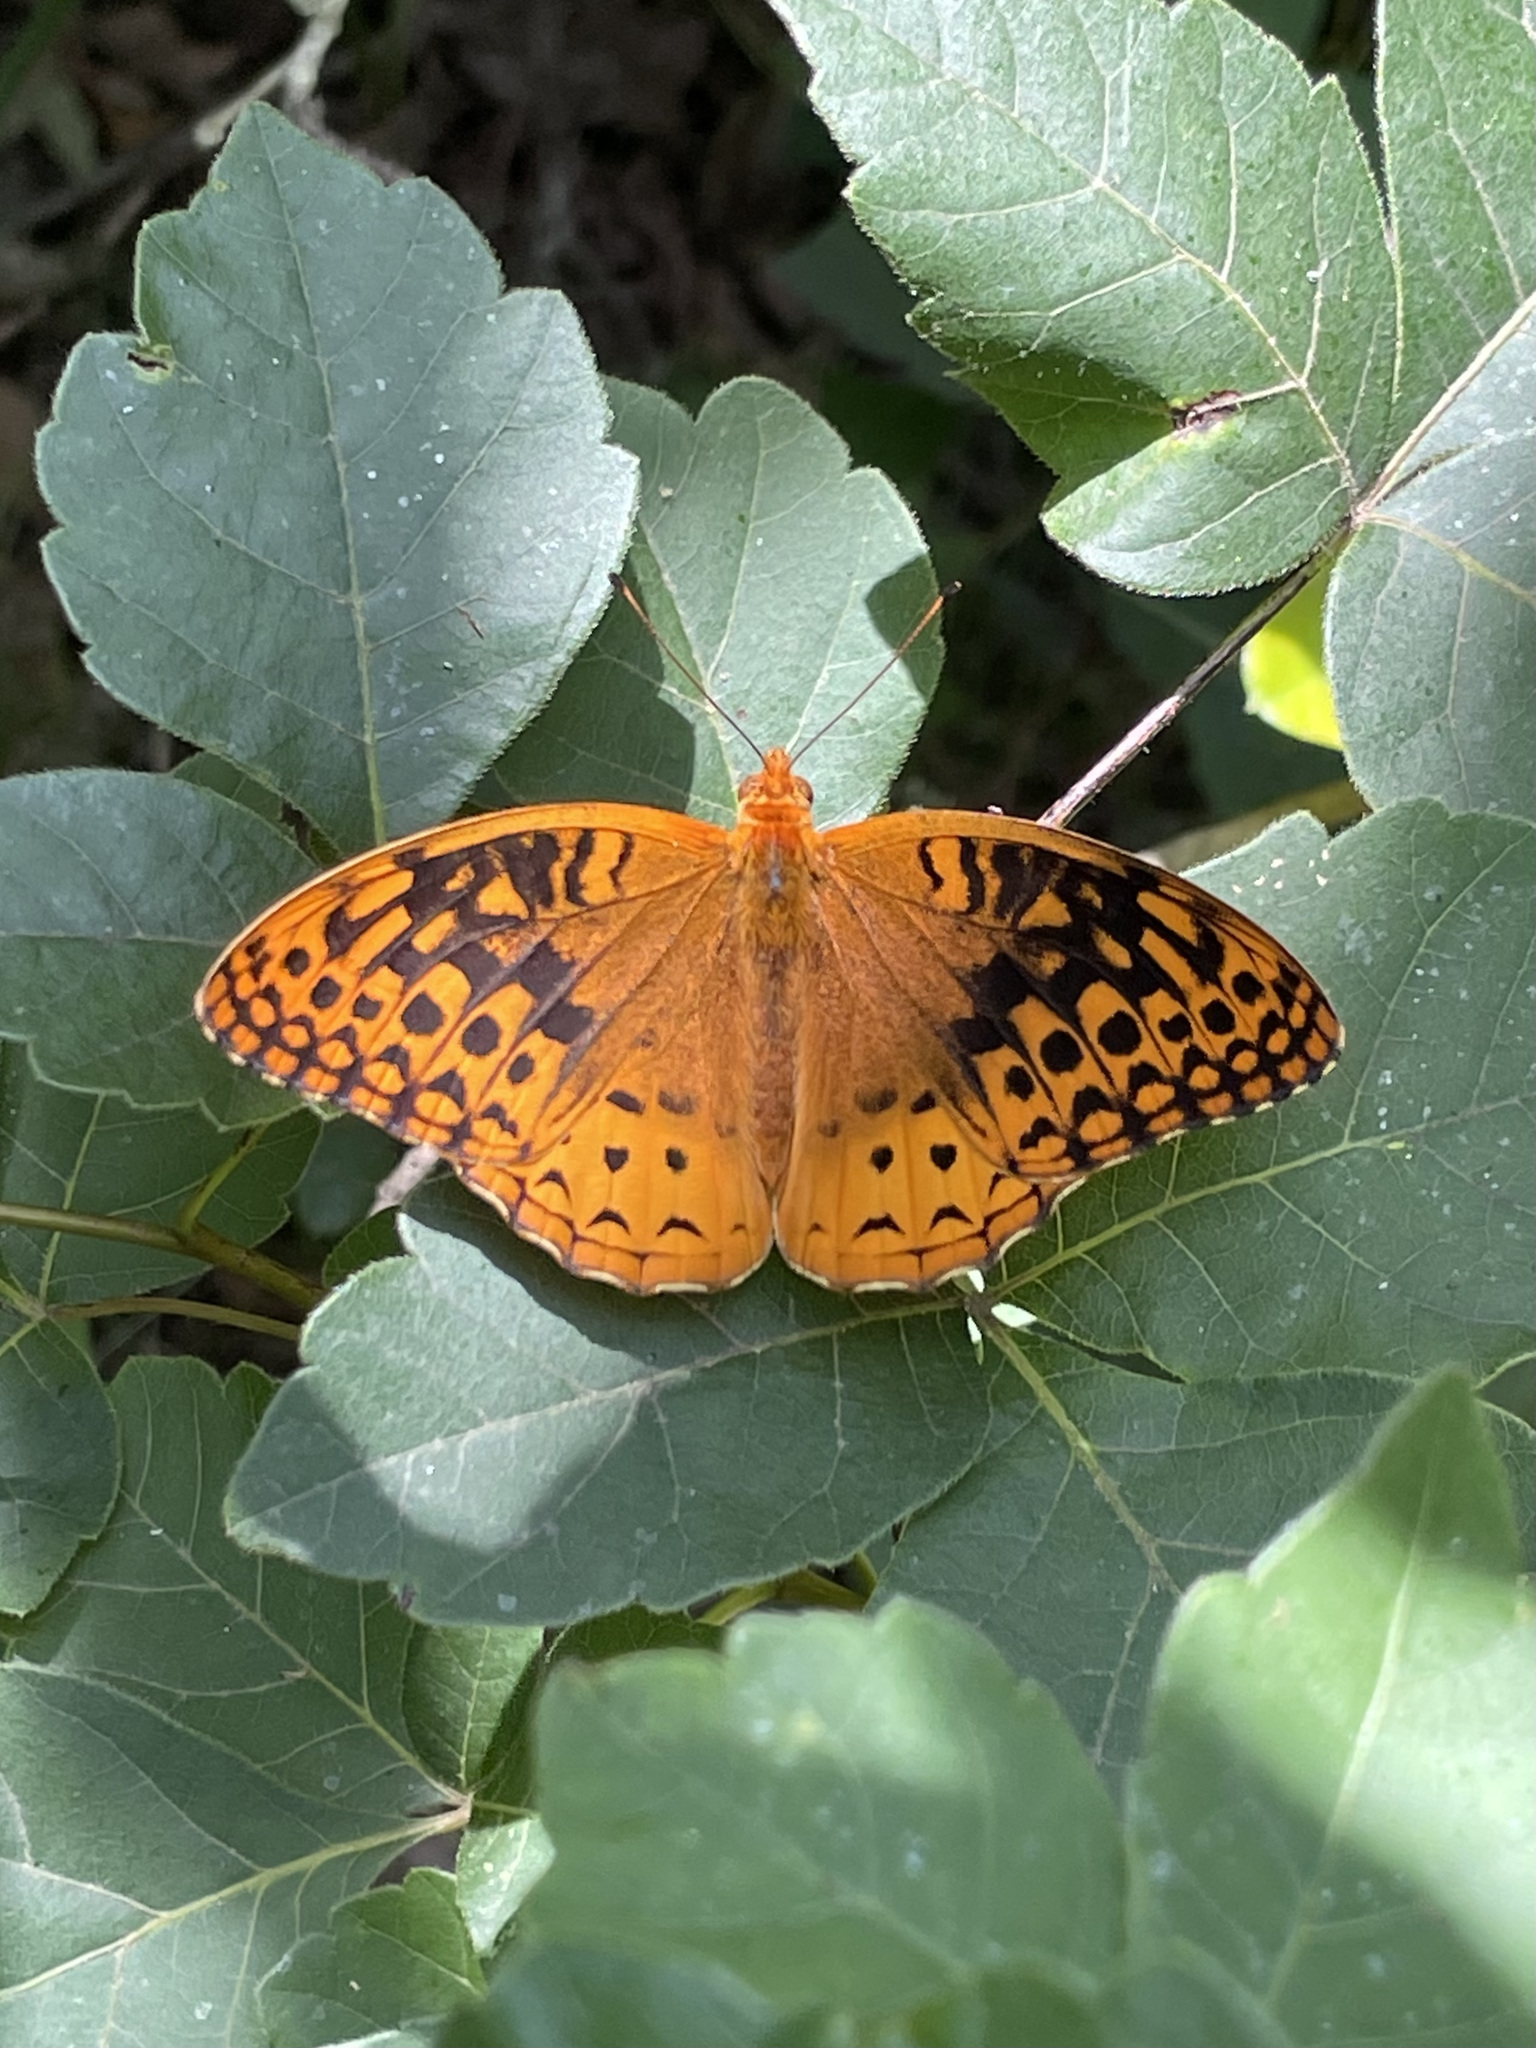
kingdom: Animalia
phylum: Arthropoda
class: Insecta
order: Lepidoptera
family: Nymphalidae
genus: Speyeria
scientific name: Speyeria cybele
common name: Great spangled fritillary
